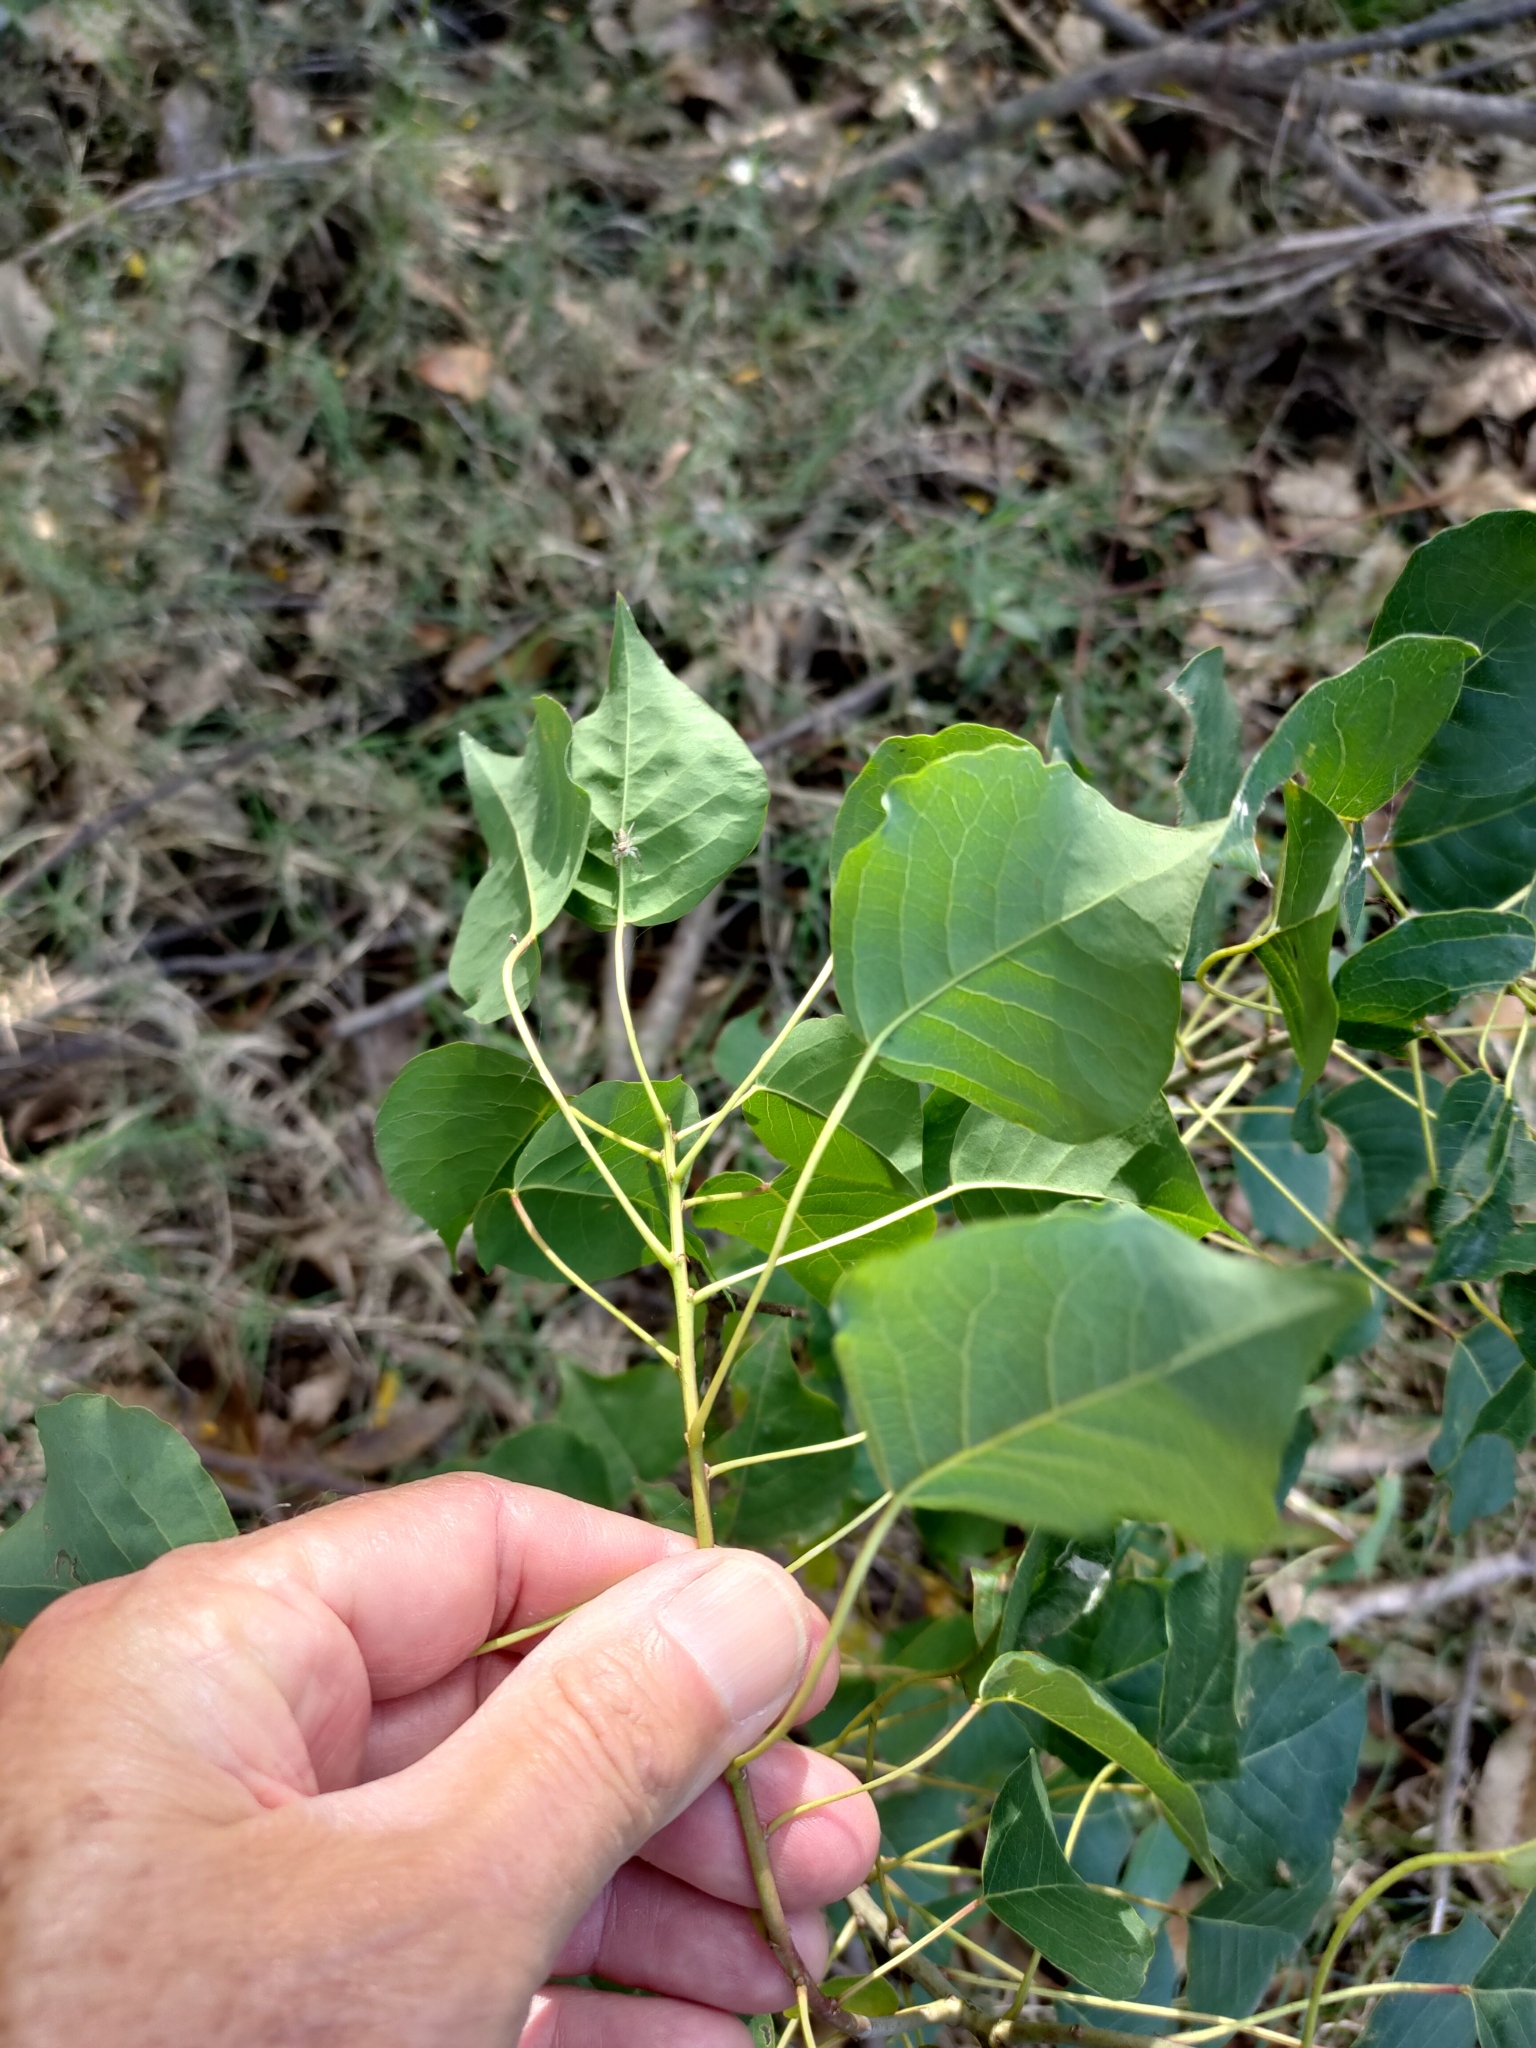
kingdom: Plantae
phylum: Tracheophyta
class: Magnoliopsida
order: Malpighiales
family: Euphorbiaceae
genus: Triadica
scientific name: Triadica sebifera
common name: Chinese tallow
